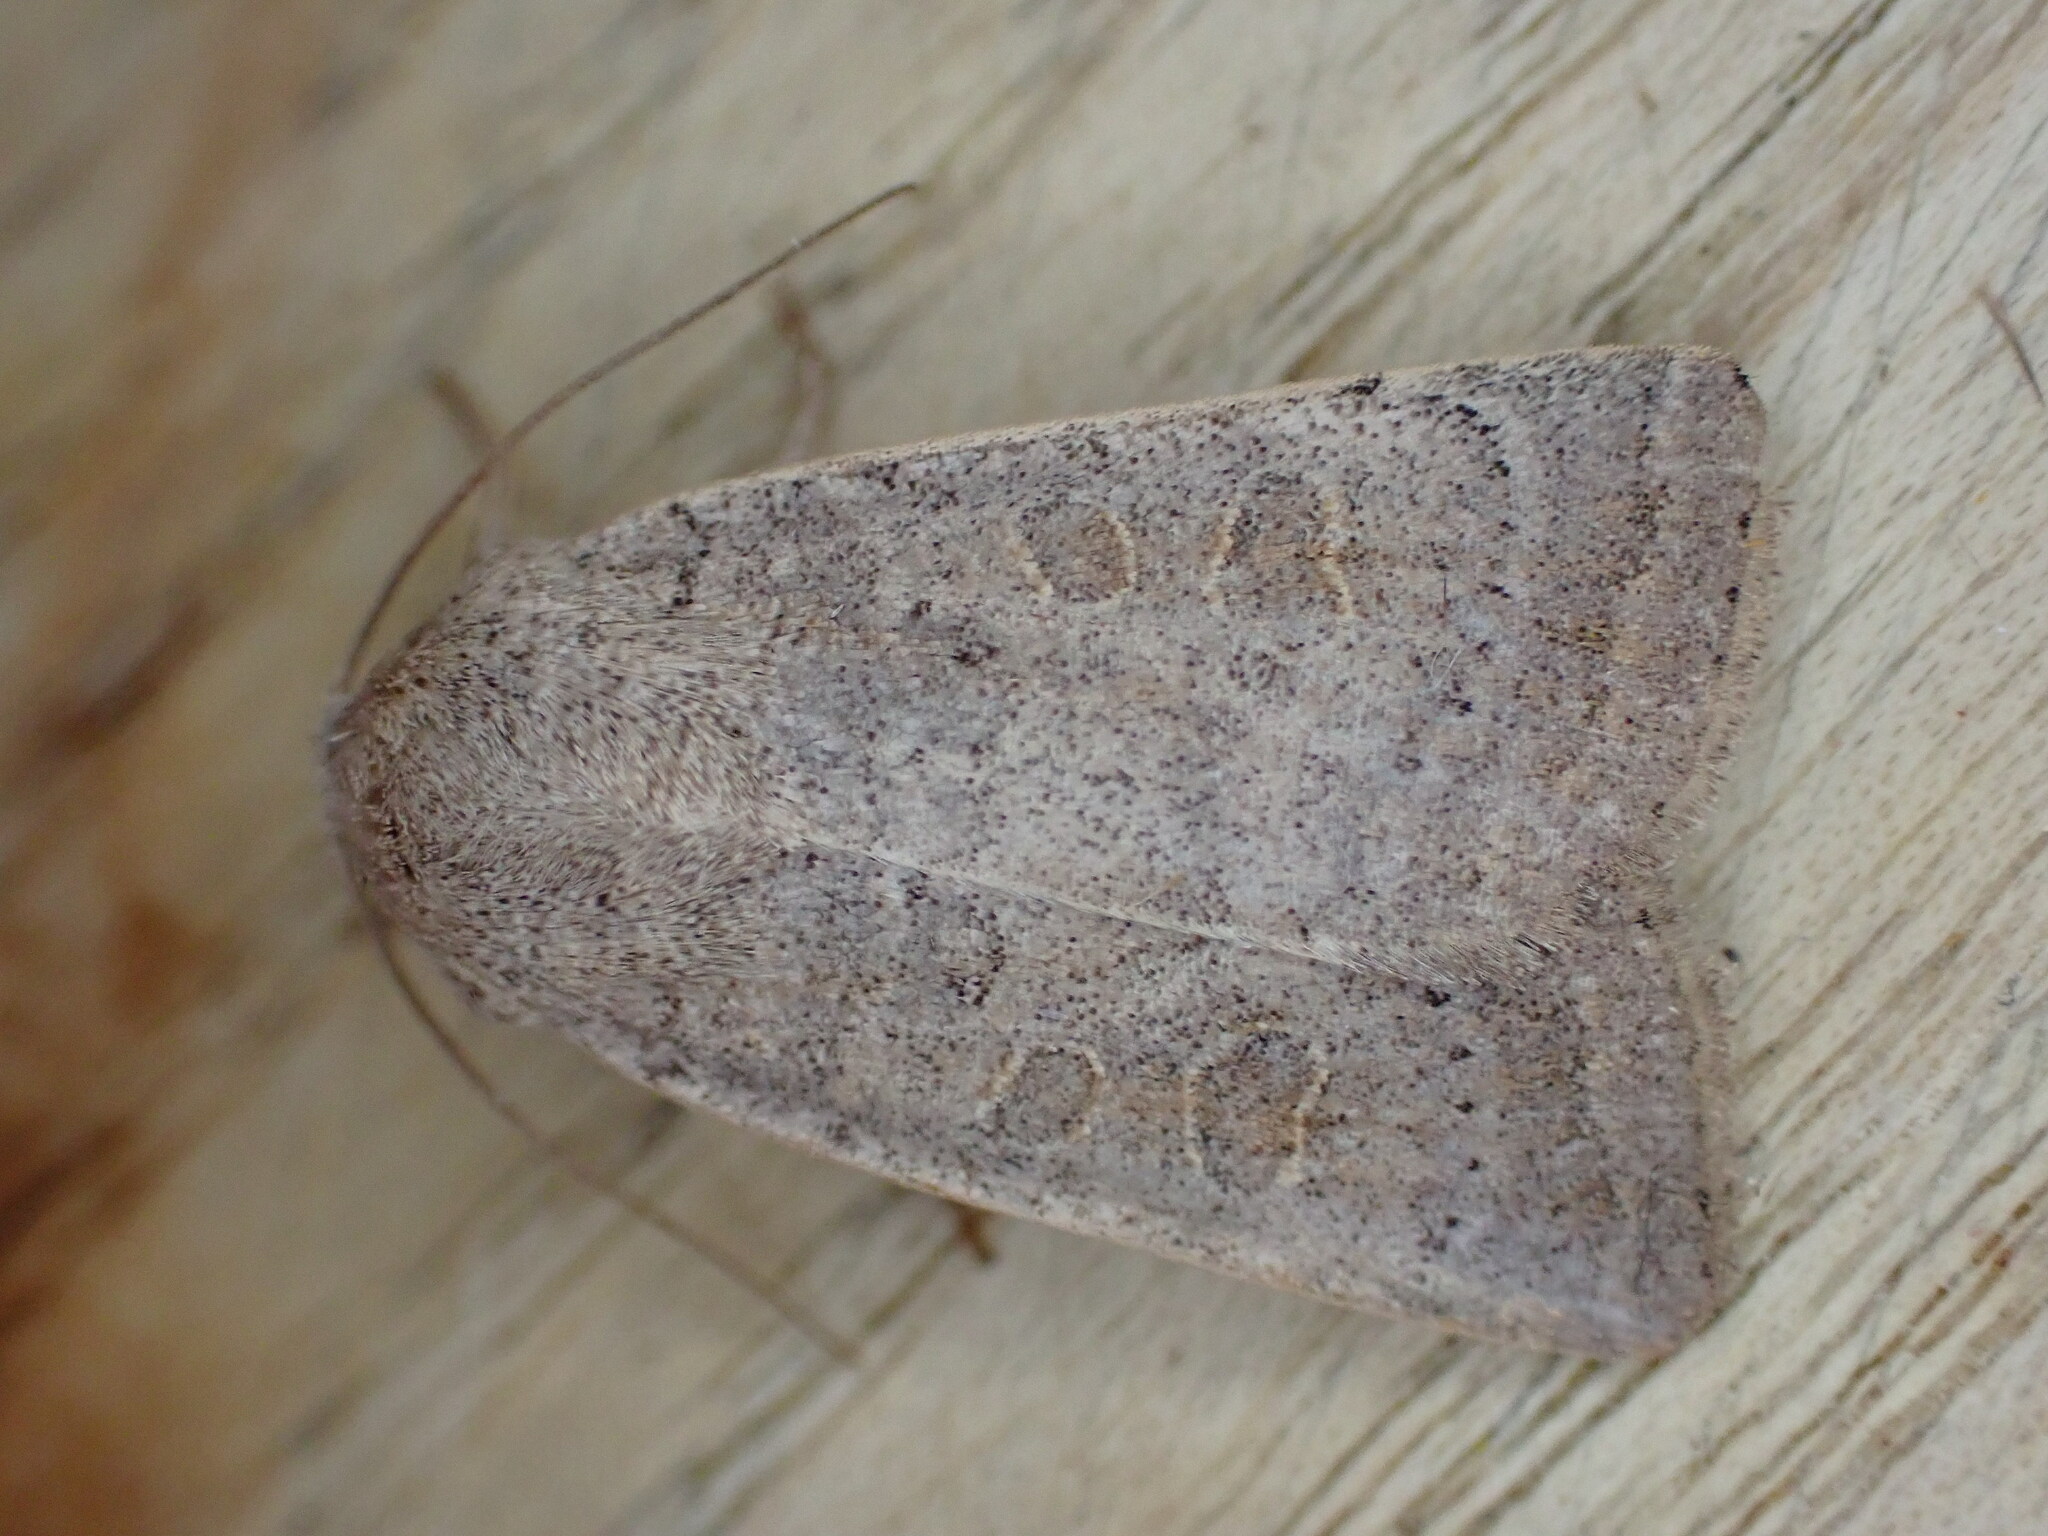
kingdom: Animalia
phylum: Arthropoda
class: Insecta
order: Lepidoptera
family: Noctuidae
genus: Hoplodrina
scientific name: Hoplodrina ambigua
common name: Vine's rustic
